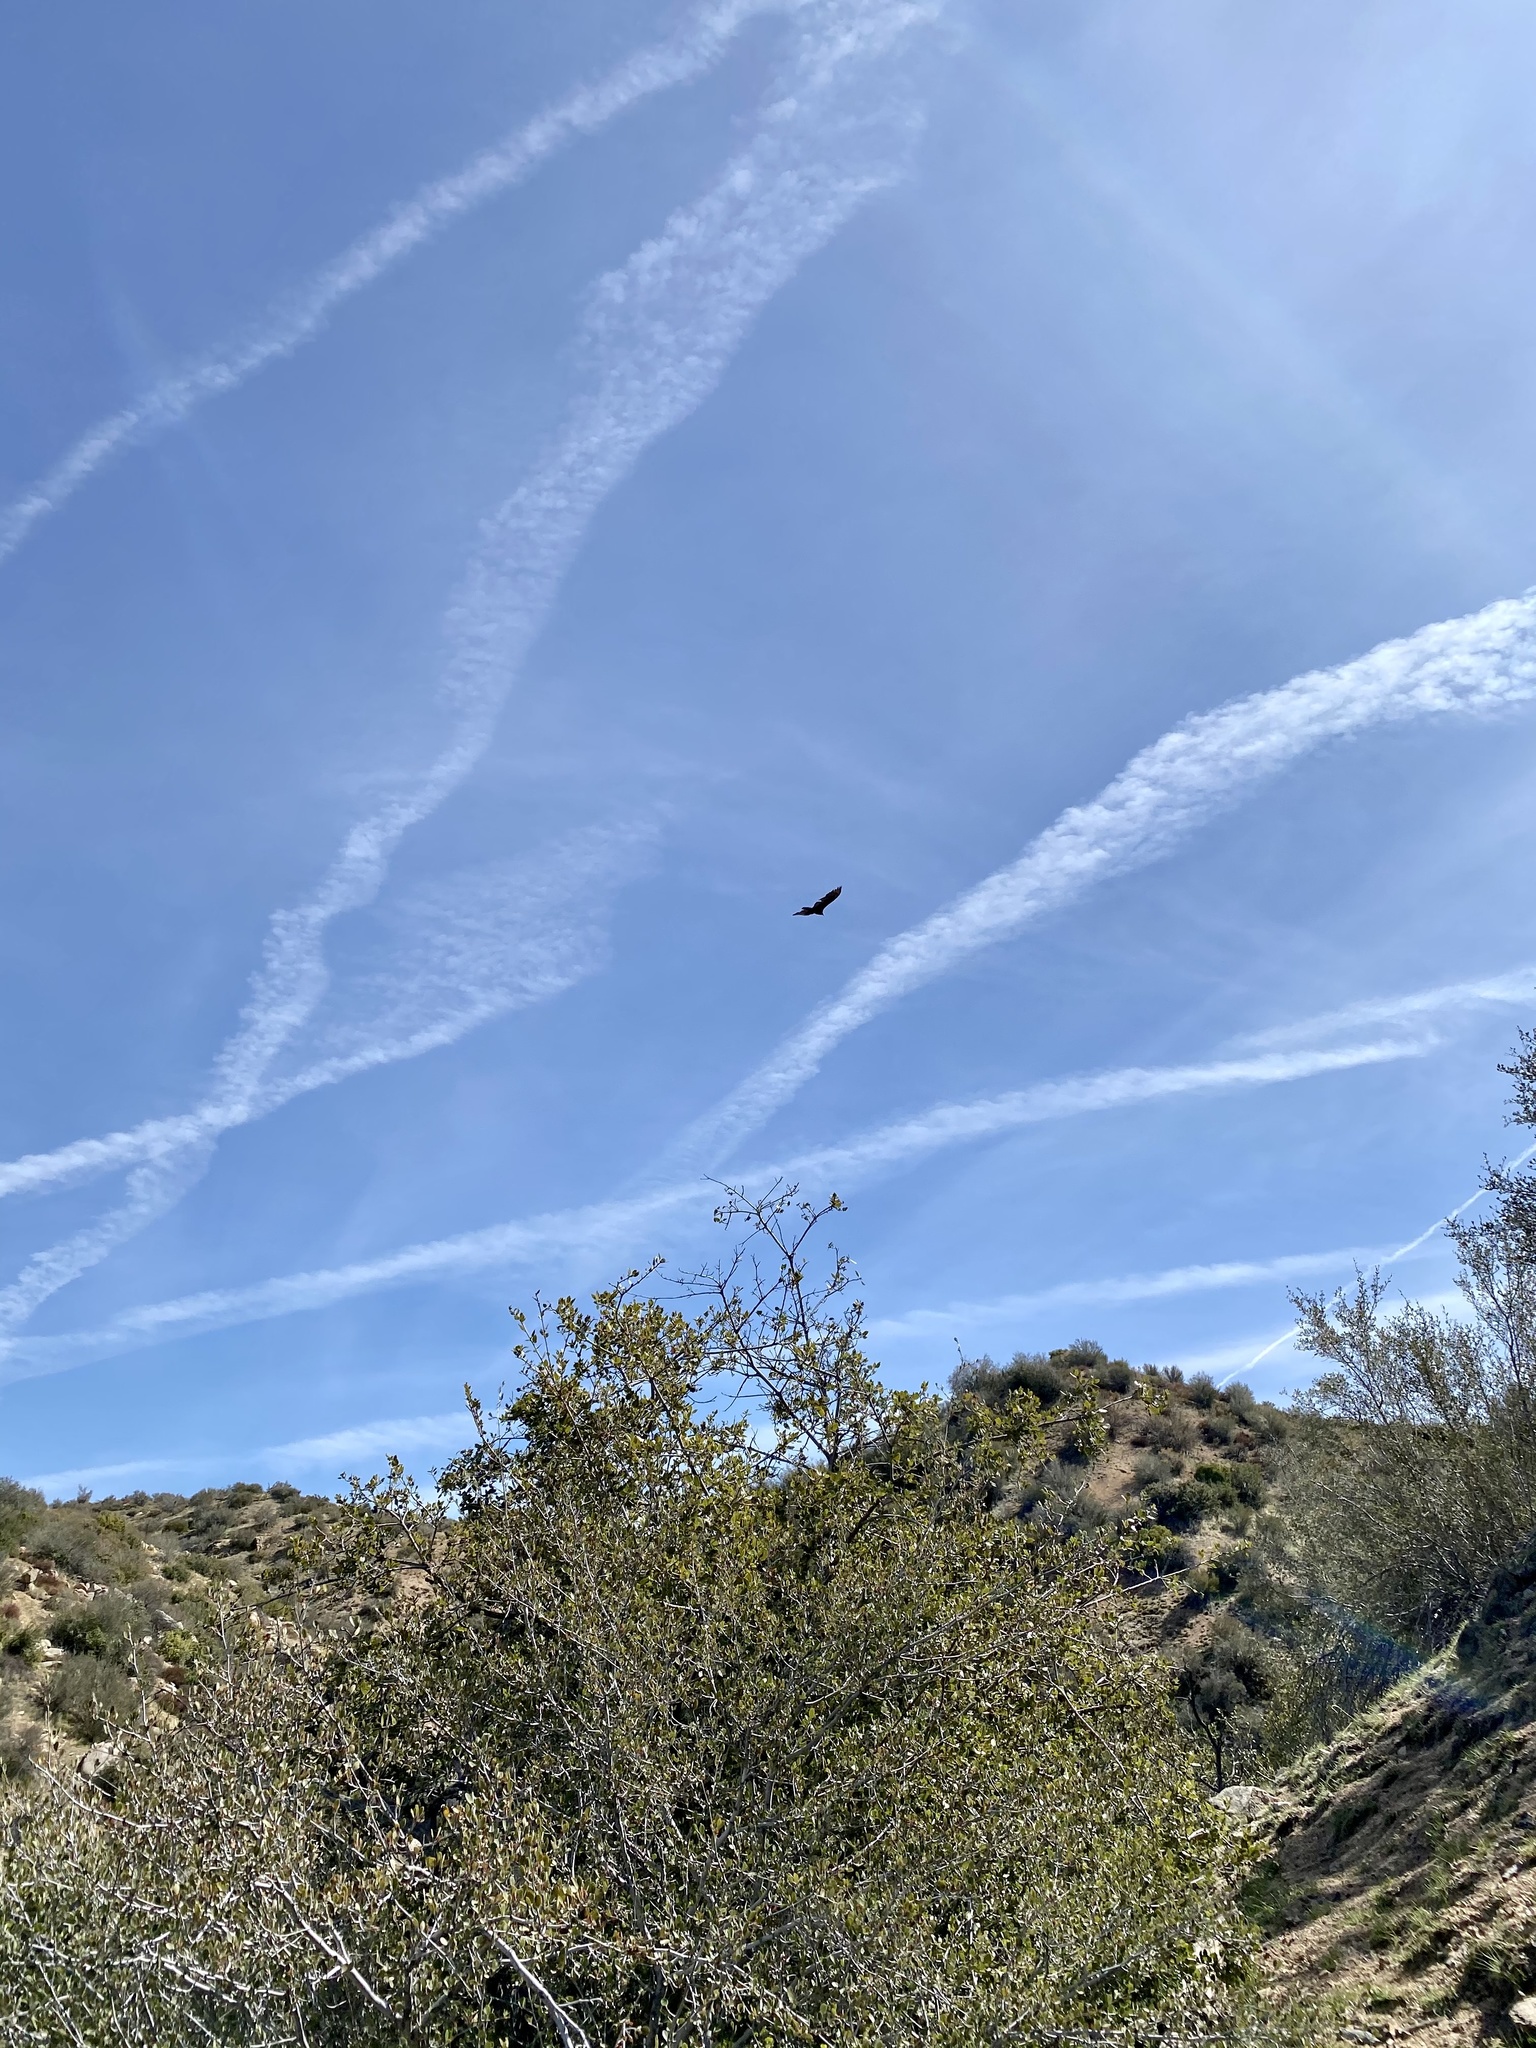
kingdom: Animalia
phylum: Chordata
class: Aves
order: Accipitriformes
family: Cathartidae
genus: Cathartes
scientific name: Cathartes aura
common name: Turkey vulture
